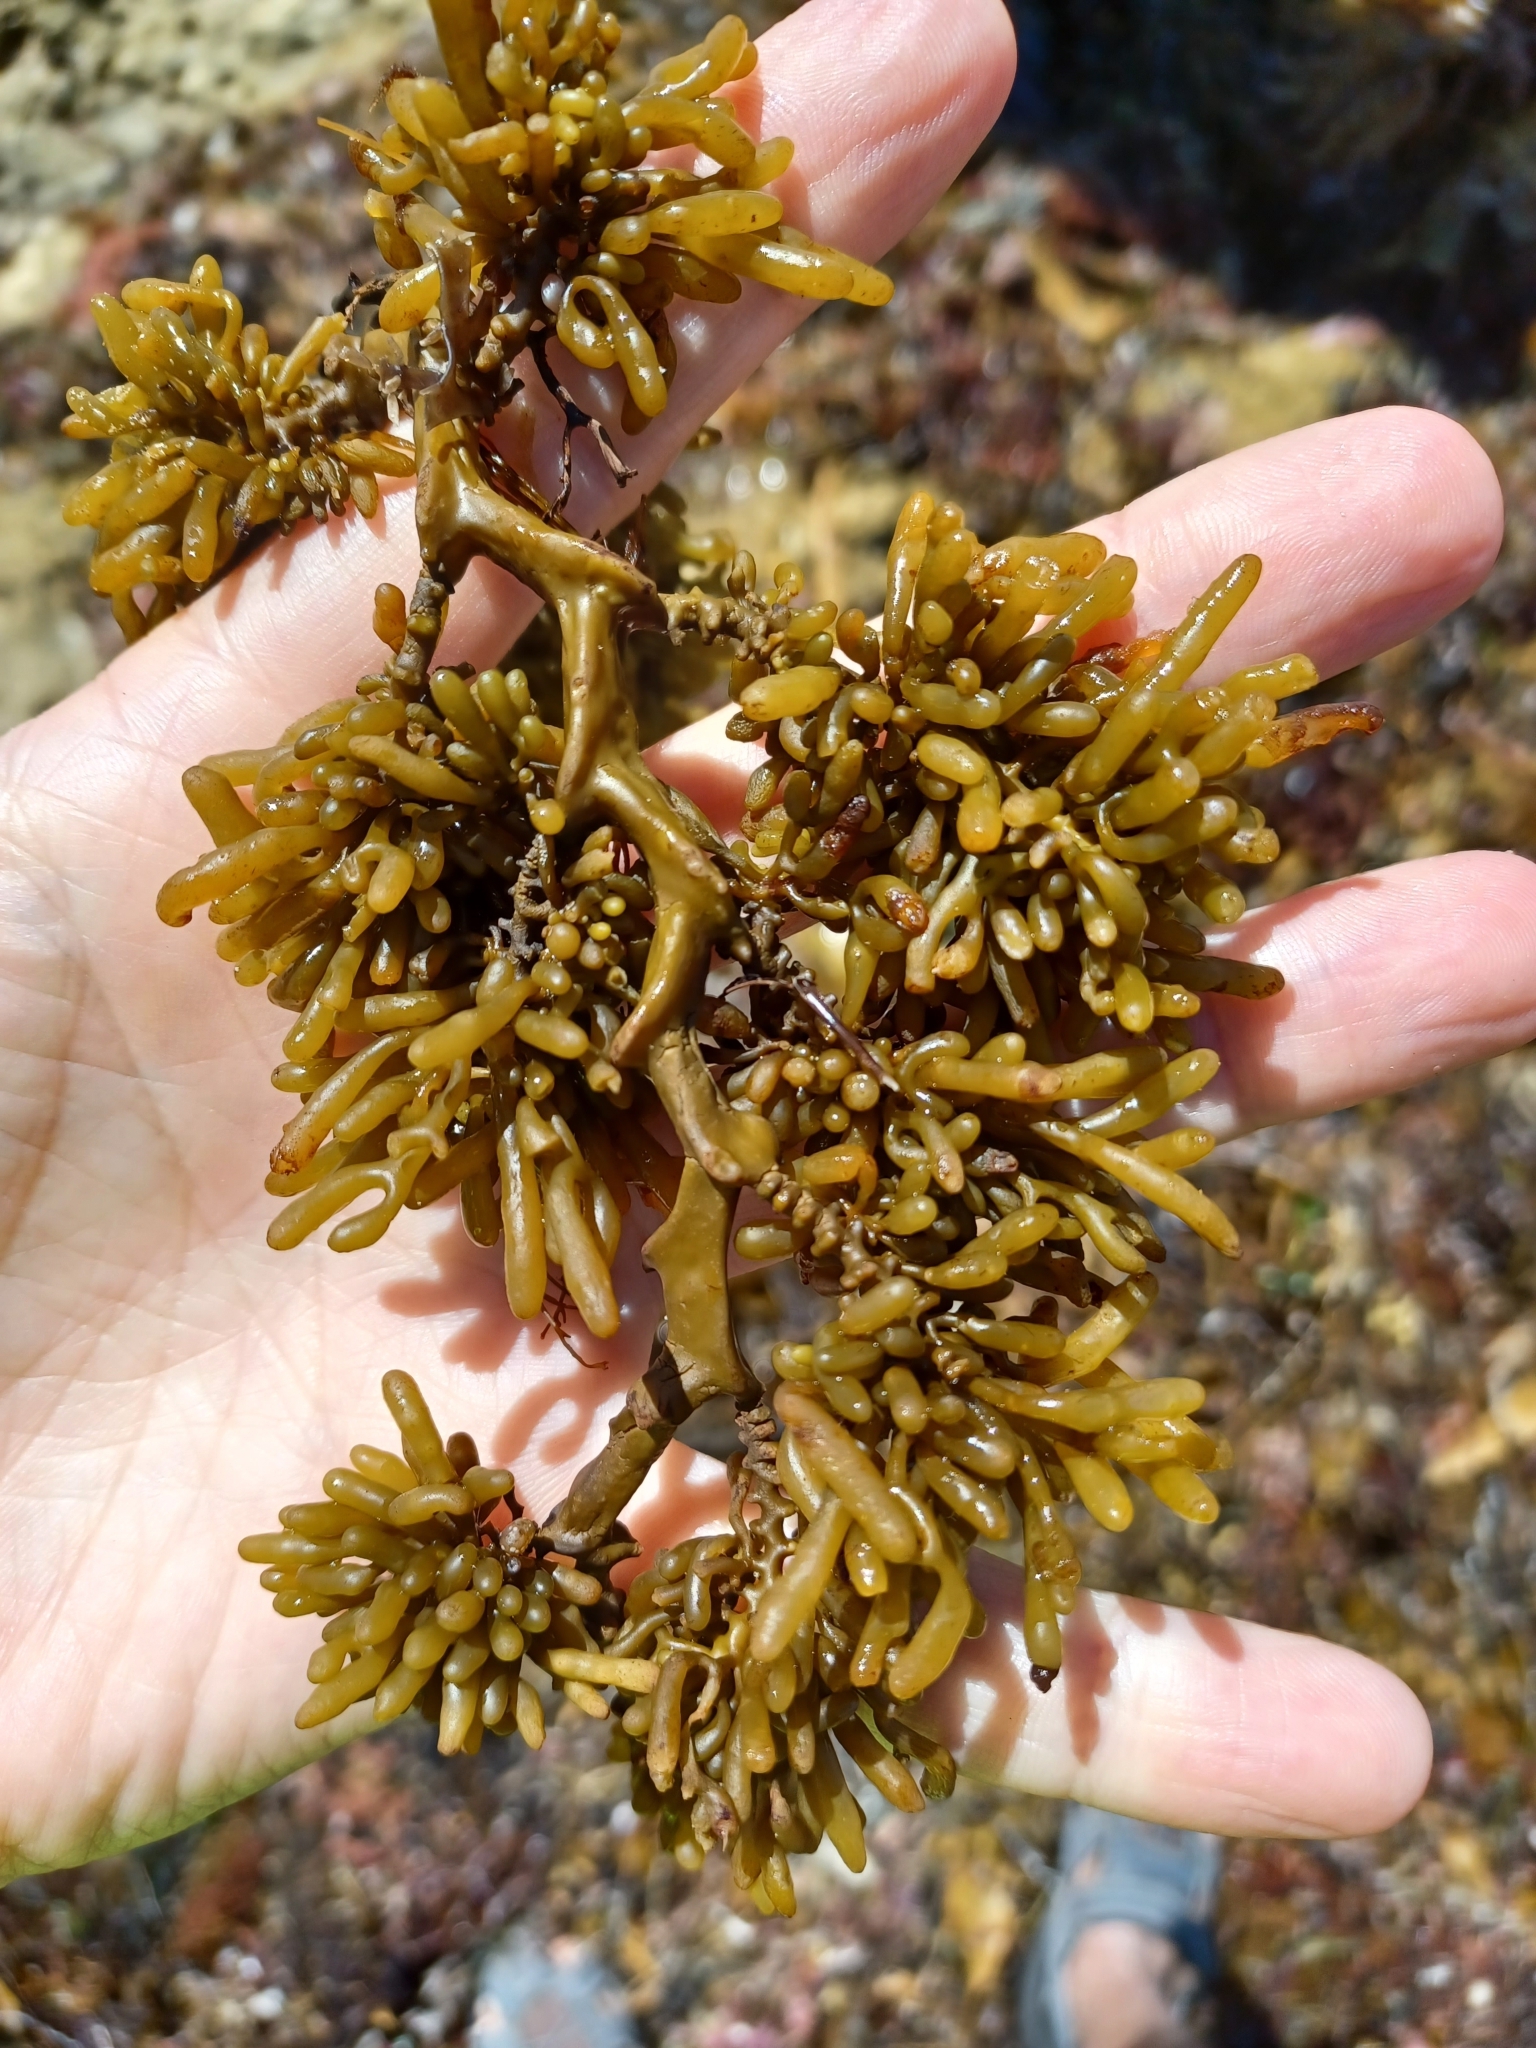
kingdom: Chromista
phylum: Ochrophyta
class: Phaeophyceae
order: Fucales
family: Sargassaceae
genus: Cystophora
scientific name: Cystophora torulosa
